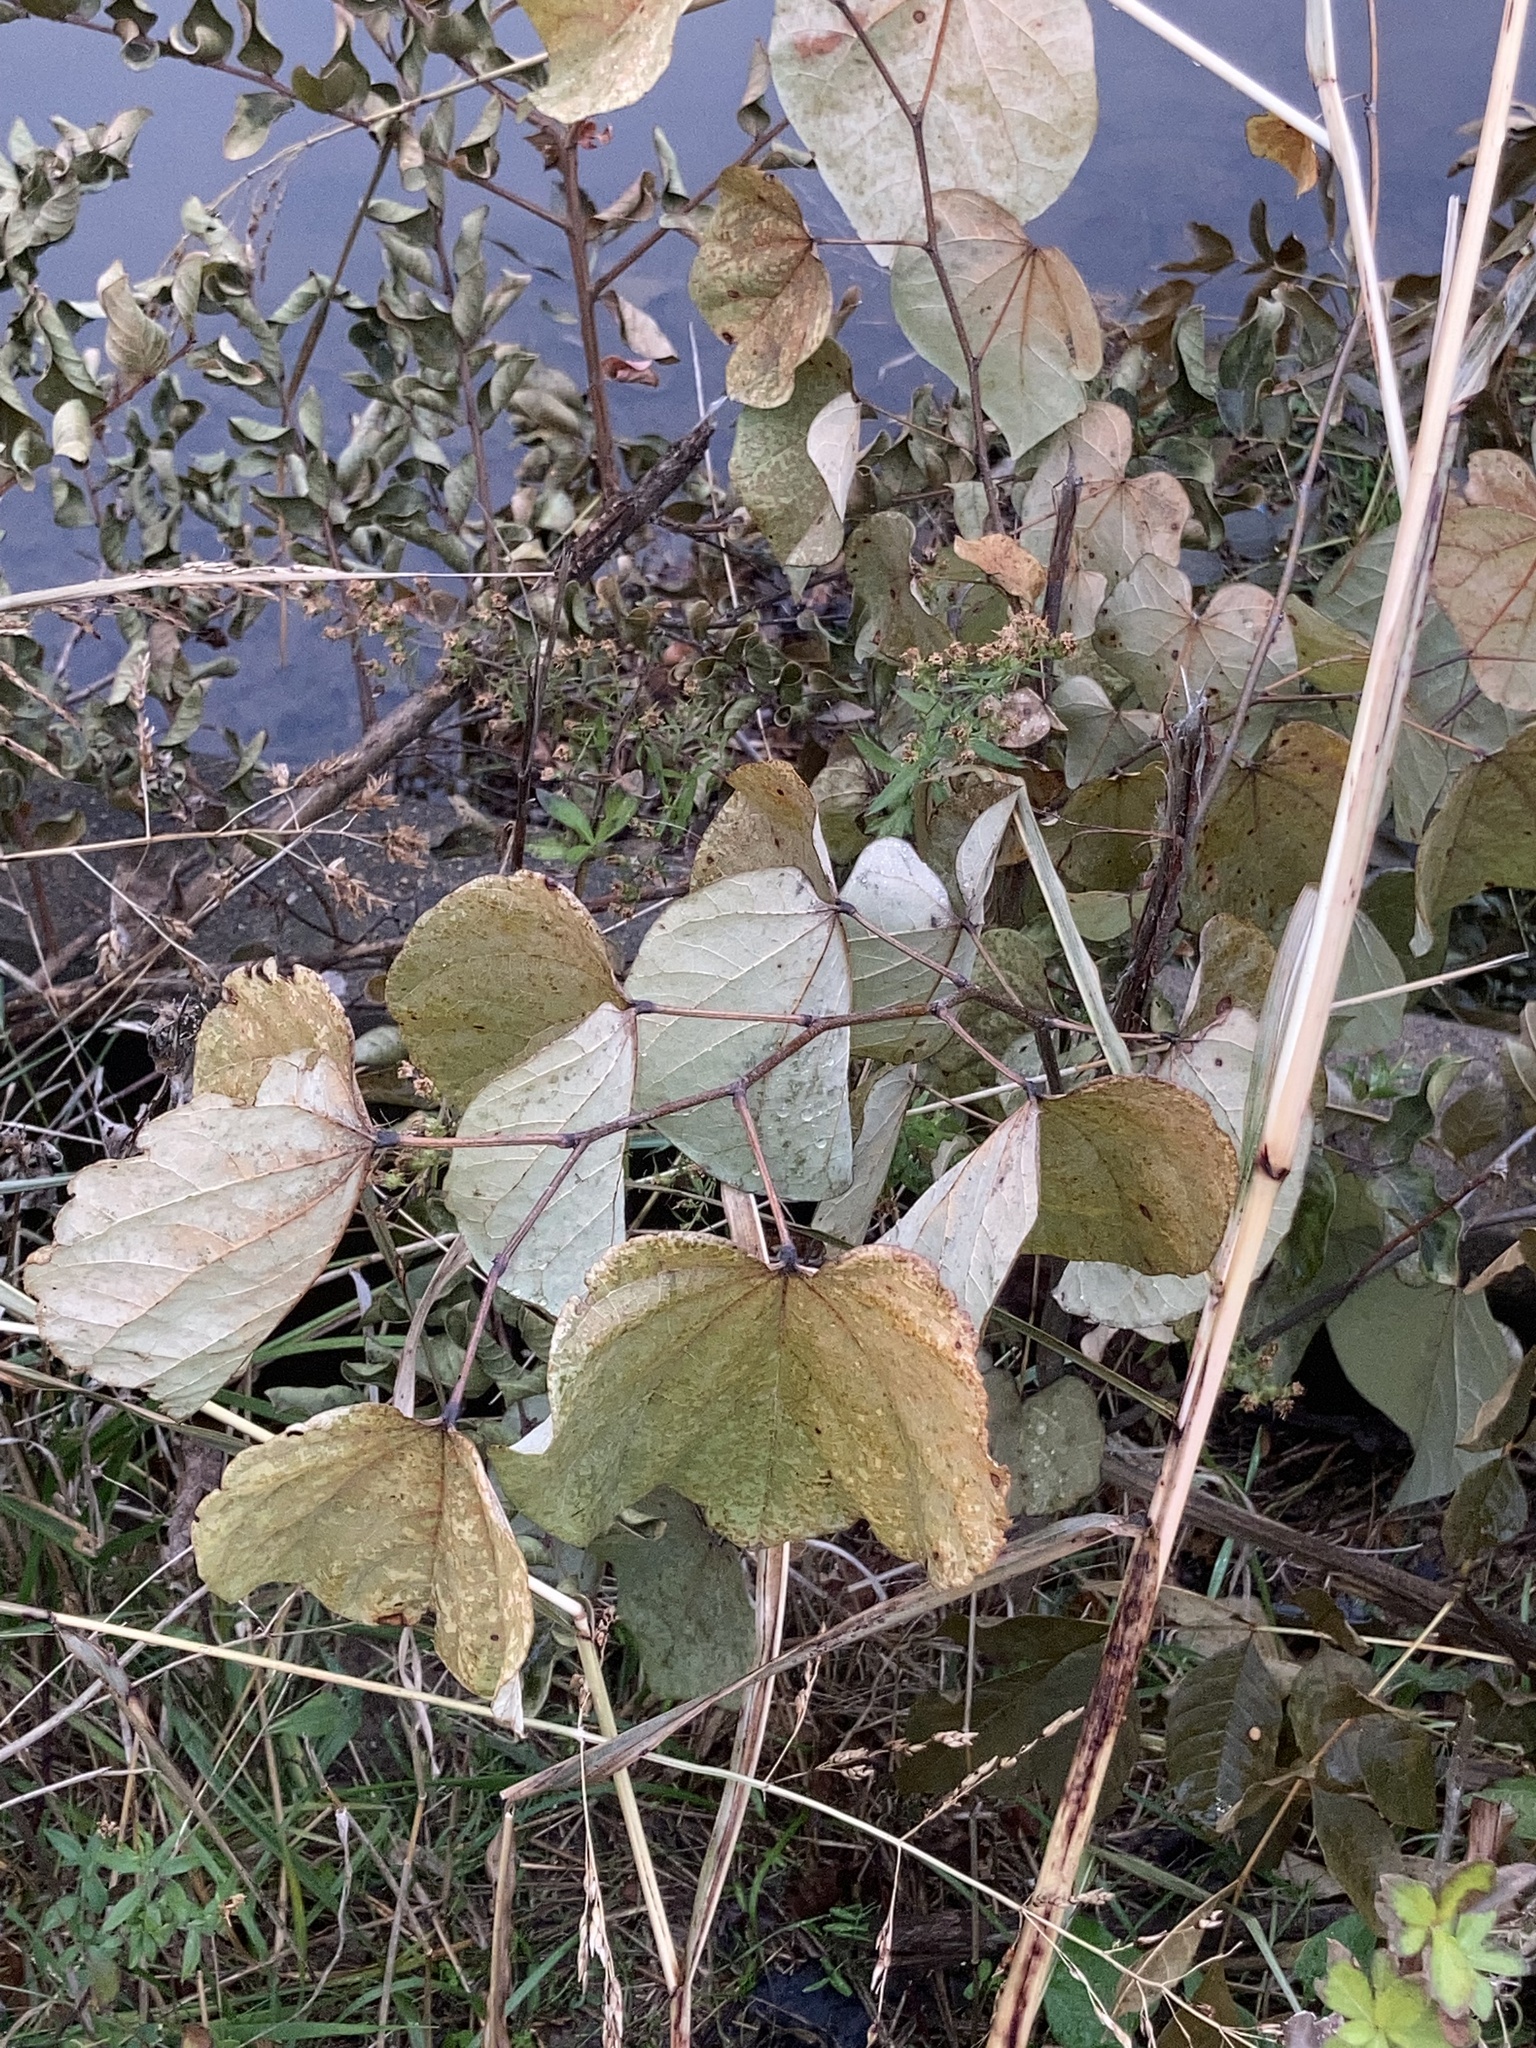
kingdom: Plantae
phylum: Tracheophyta
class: Magnoliopsida
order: Fabales
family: Fabaceae
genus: Cercis
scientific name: Cercis canadensis
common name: Eastern redbud
